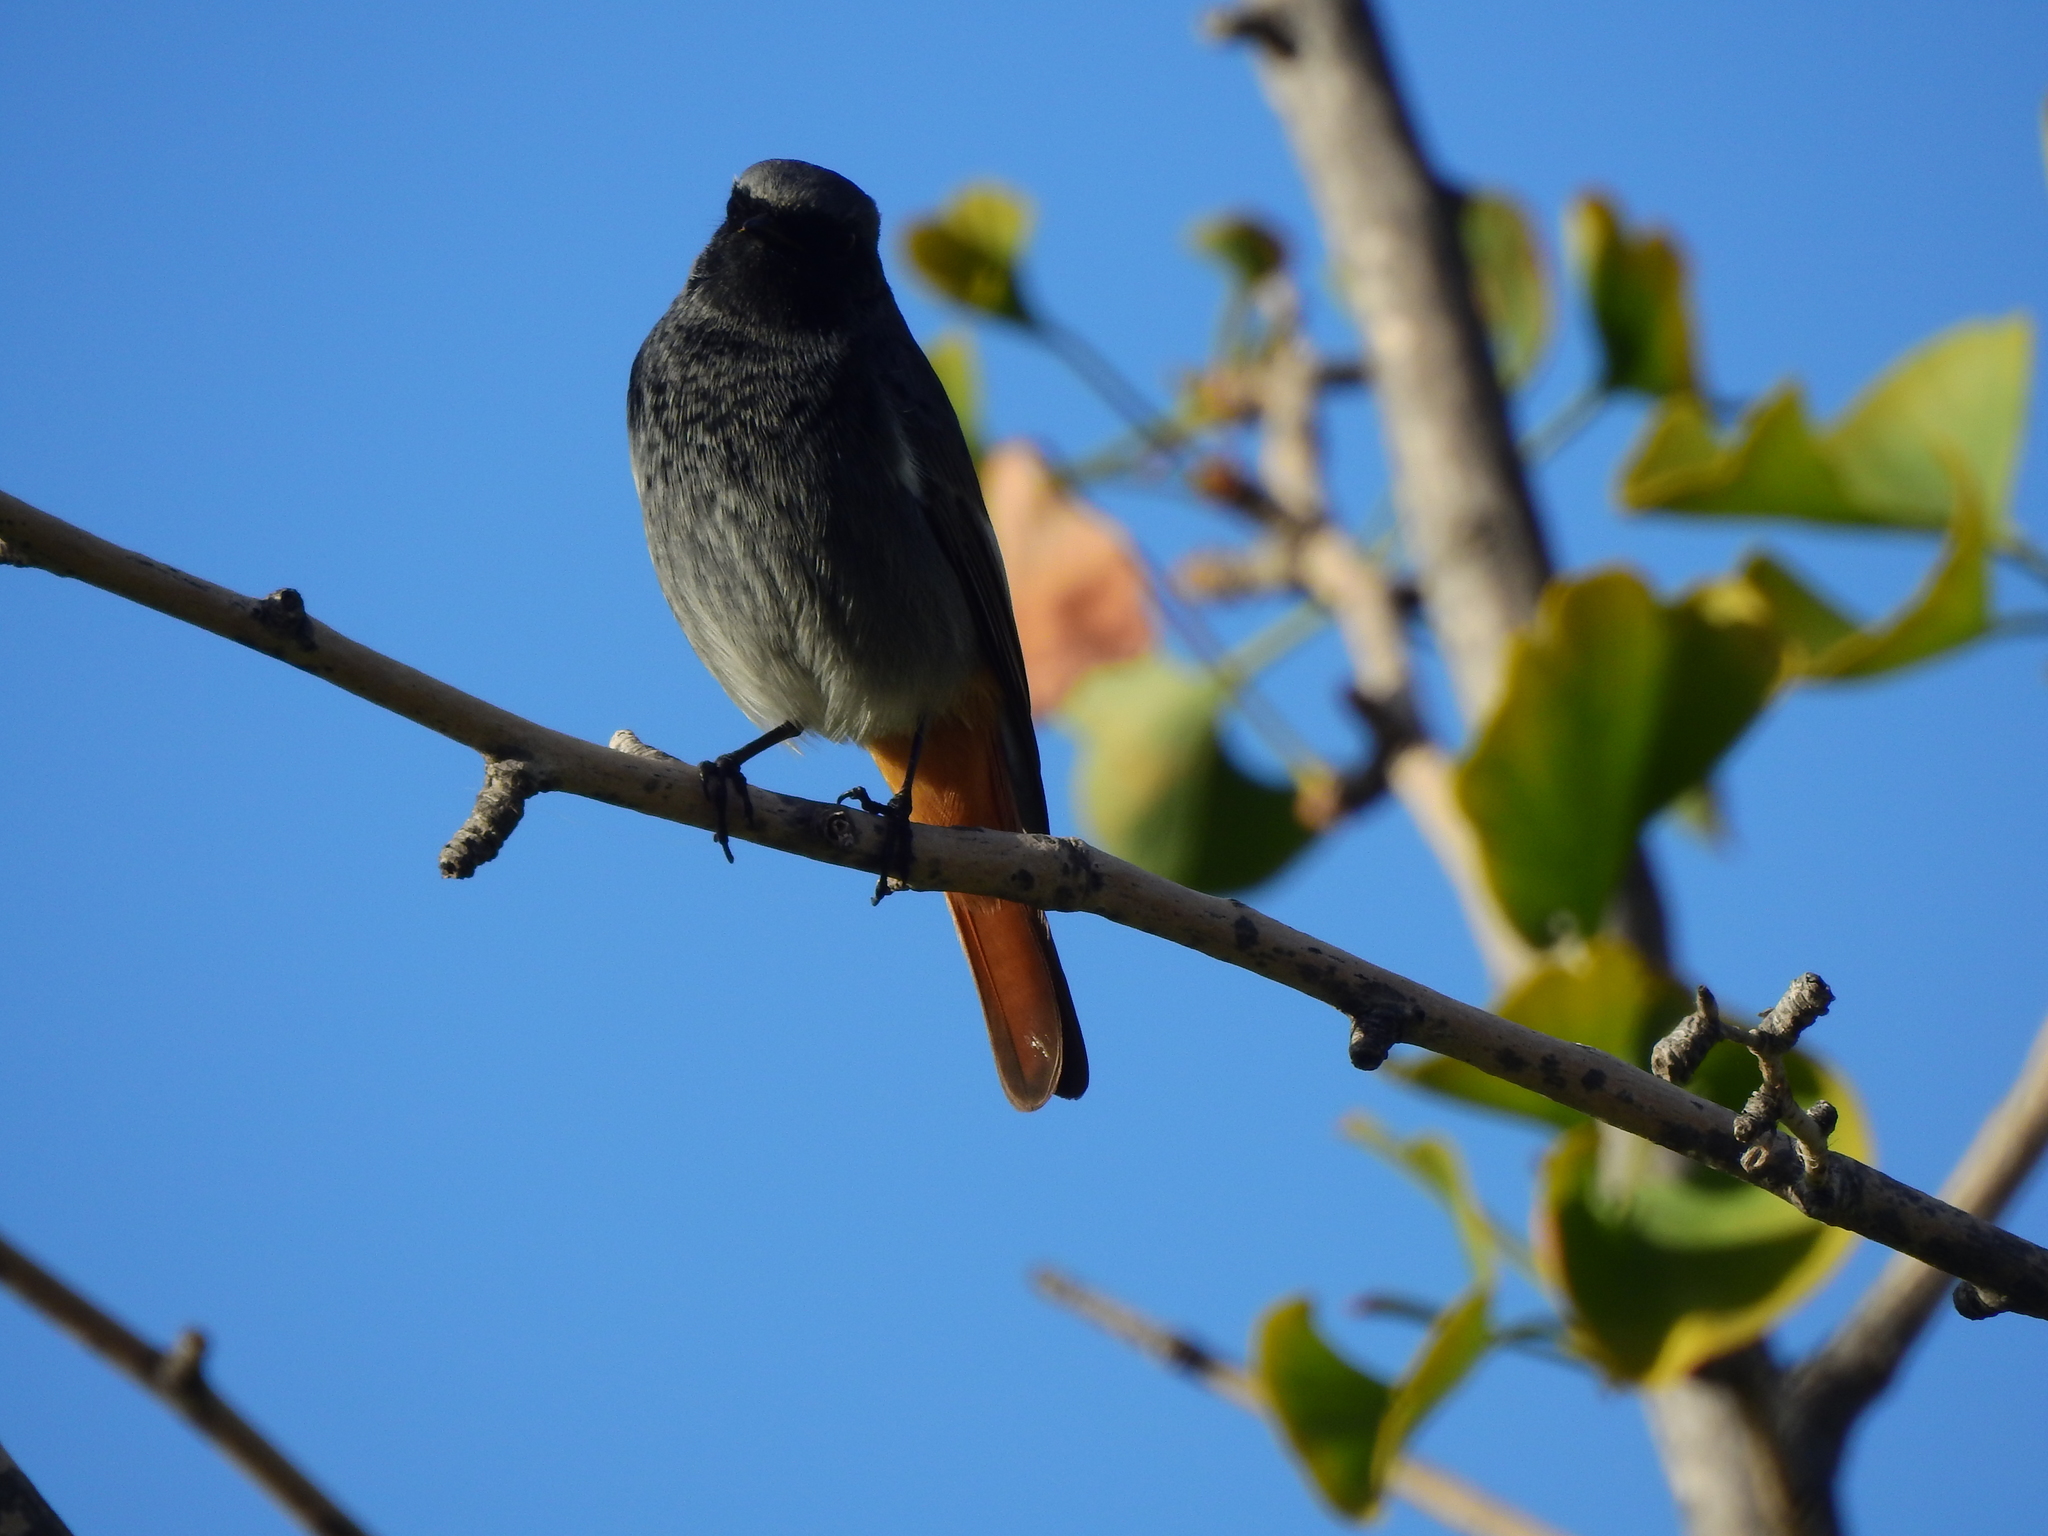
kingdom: Animalia
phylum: Chordata
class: Aves
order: Passeriformes
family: Muscicapidae
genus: Phoenicurus
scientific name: Phoenicurus ochruros
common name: Black redstart
